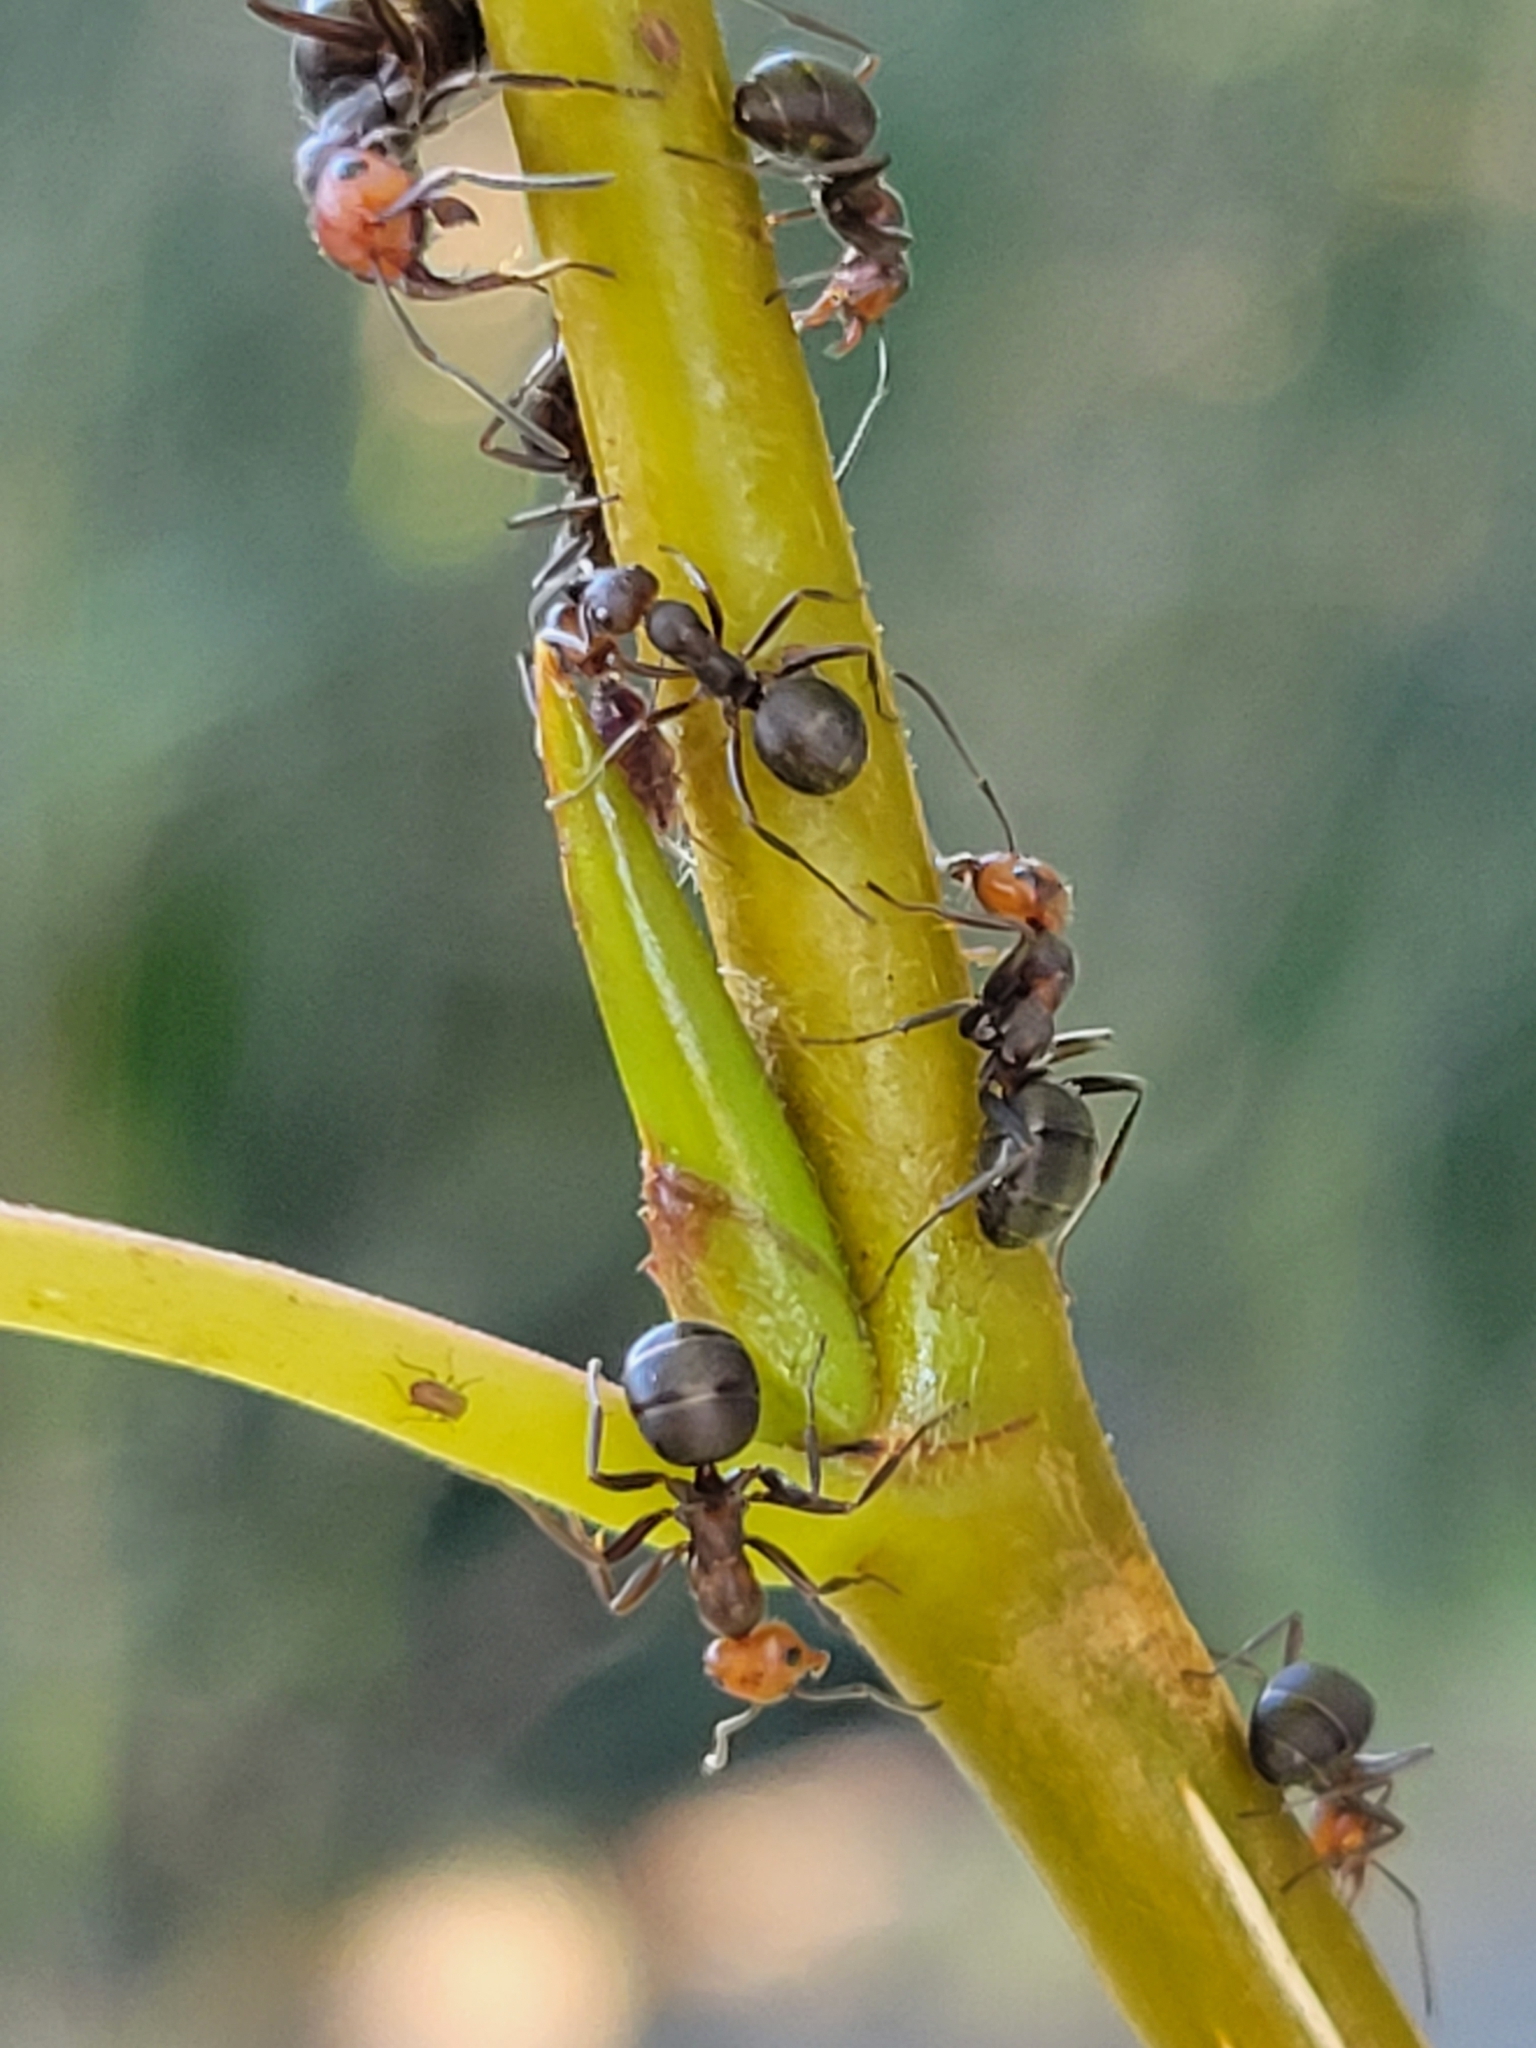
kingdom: Animalia
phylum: Arthropoda
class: Insecta
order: Hymenoptera
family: Formicidae
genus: Formica
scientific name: Formica obscuripes
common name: Western thatching ant
